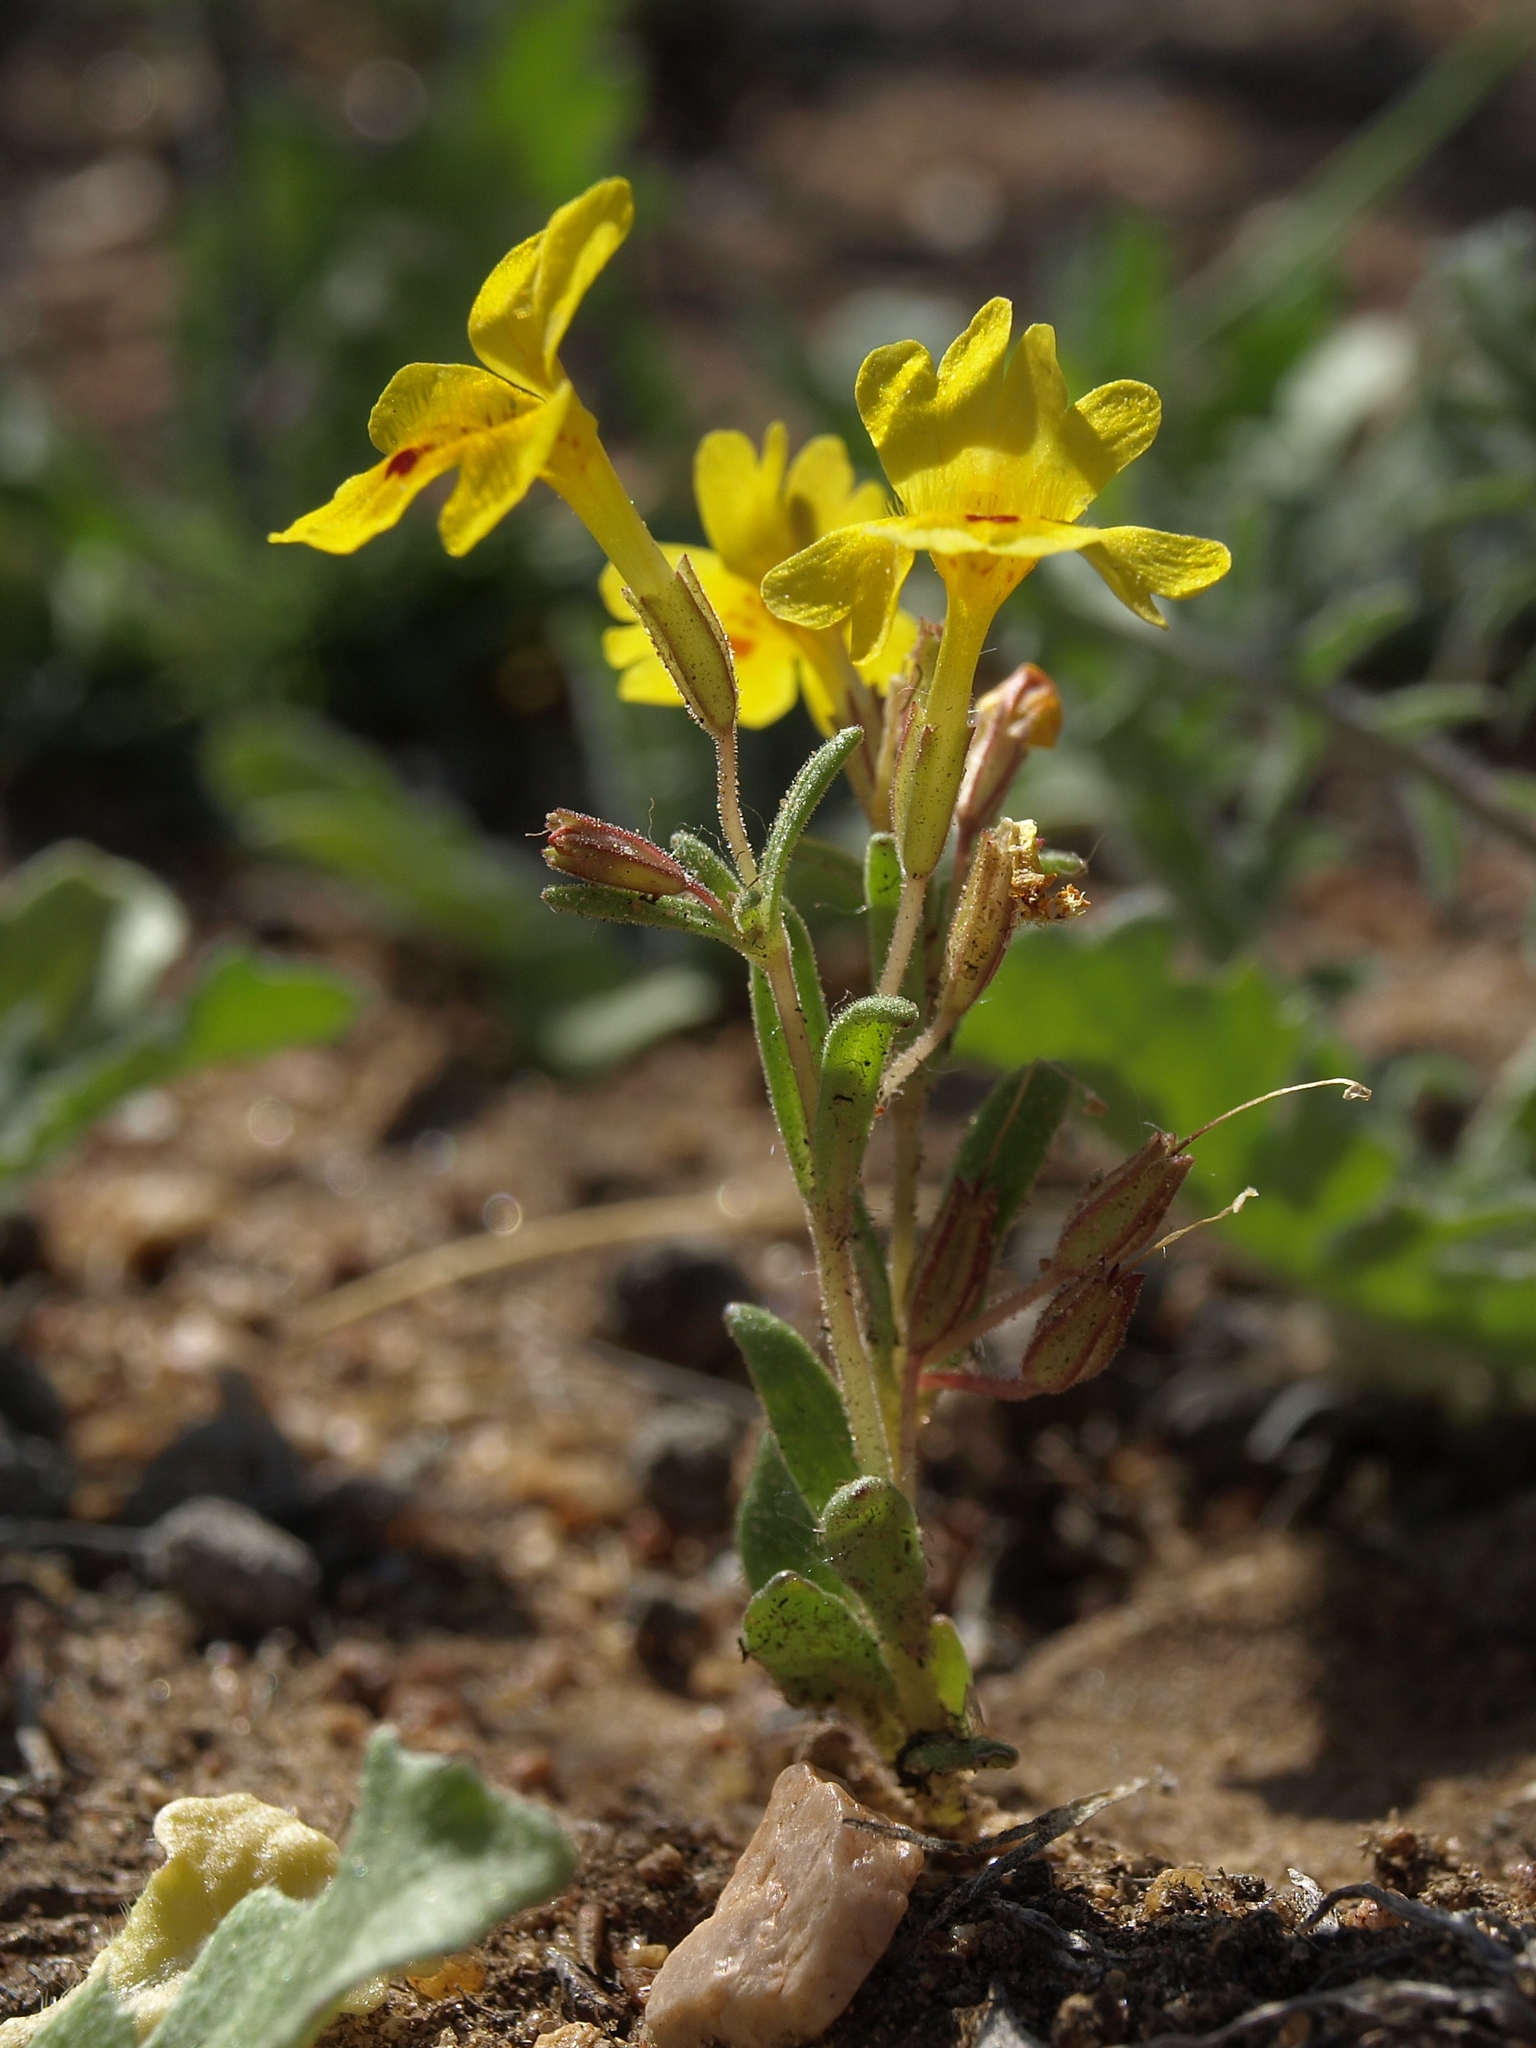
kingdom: Plantae
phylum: Tracheophyta
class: Magnoliopsida
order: Lamiales
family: Phrymaceae
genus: Erythranthe
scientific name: Erythranthe carsonensis
